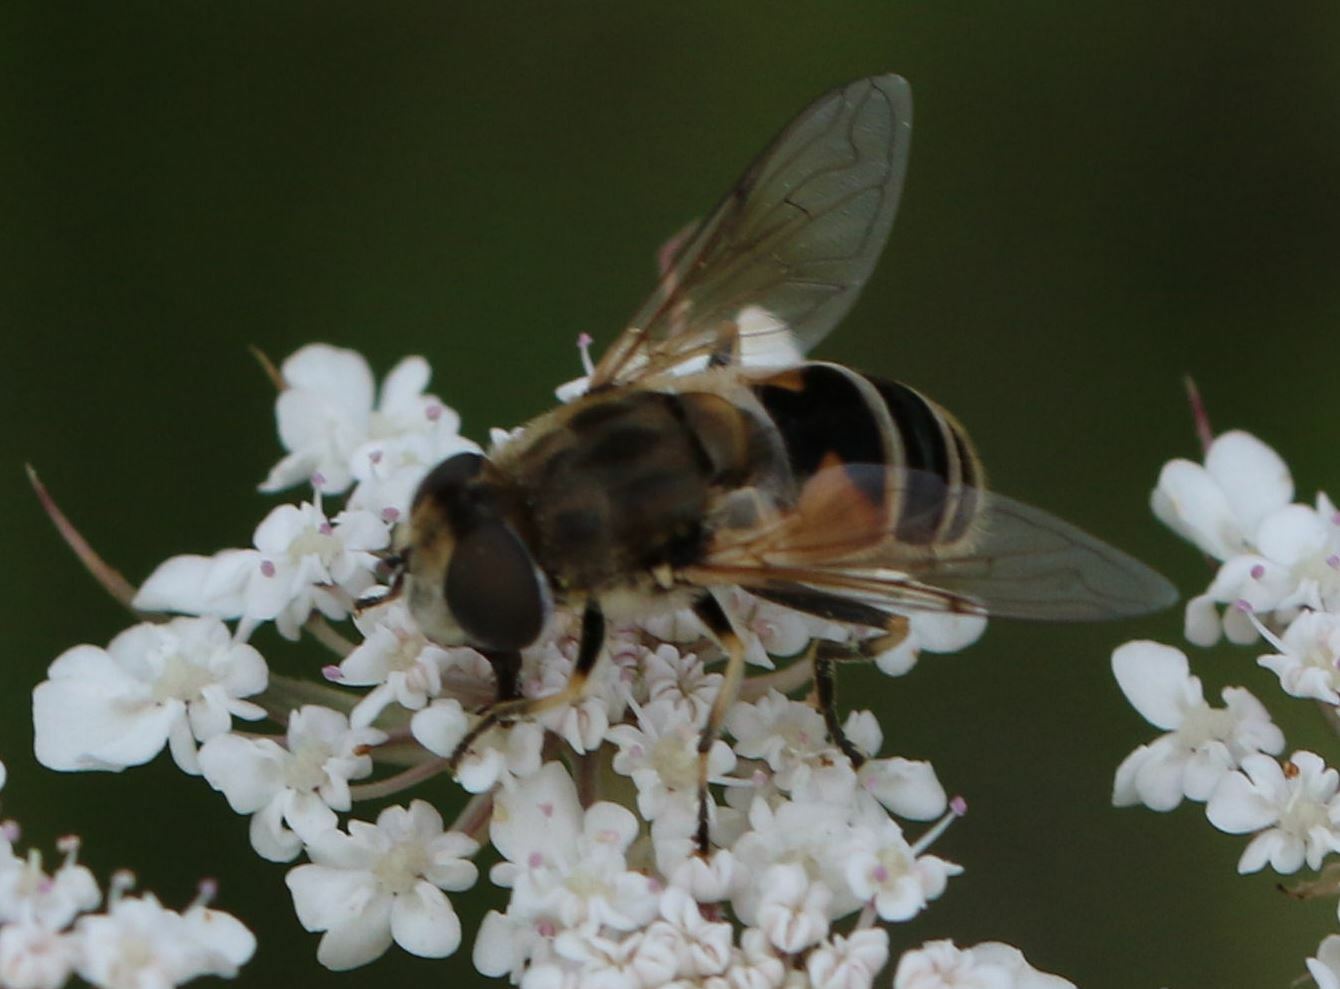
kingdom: Animalia
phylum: Arthropoda
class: Insecta
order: Diptera
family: Syrphidae
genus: Eristalis
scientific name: Eristalis arbustorum
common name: Hover fly
